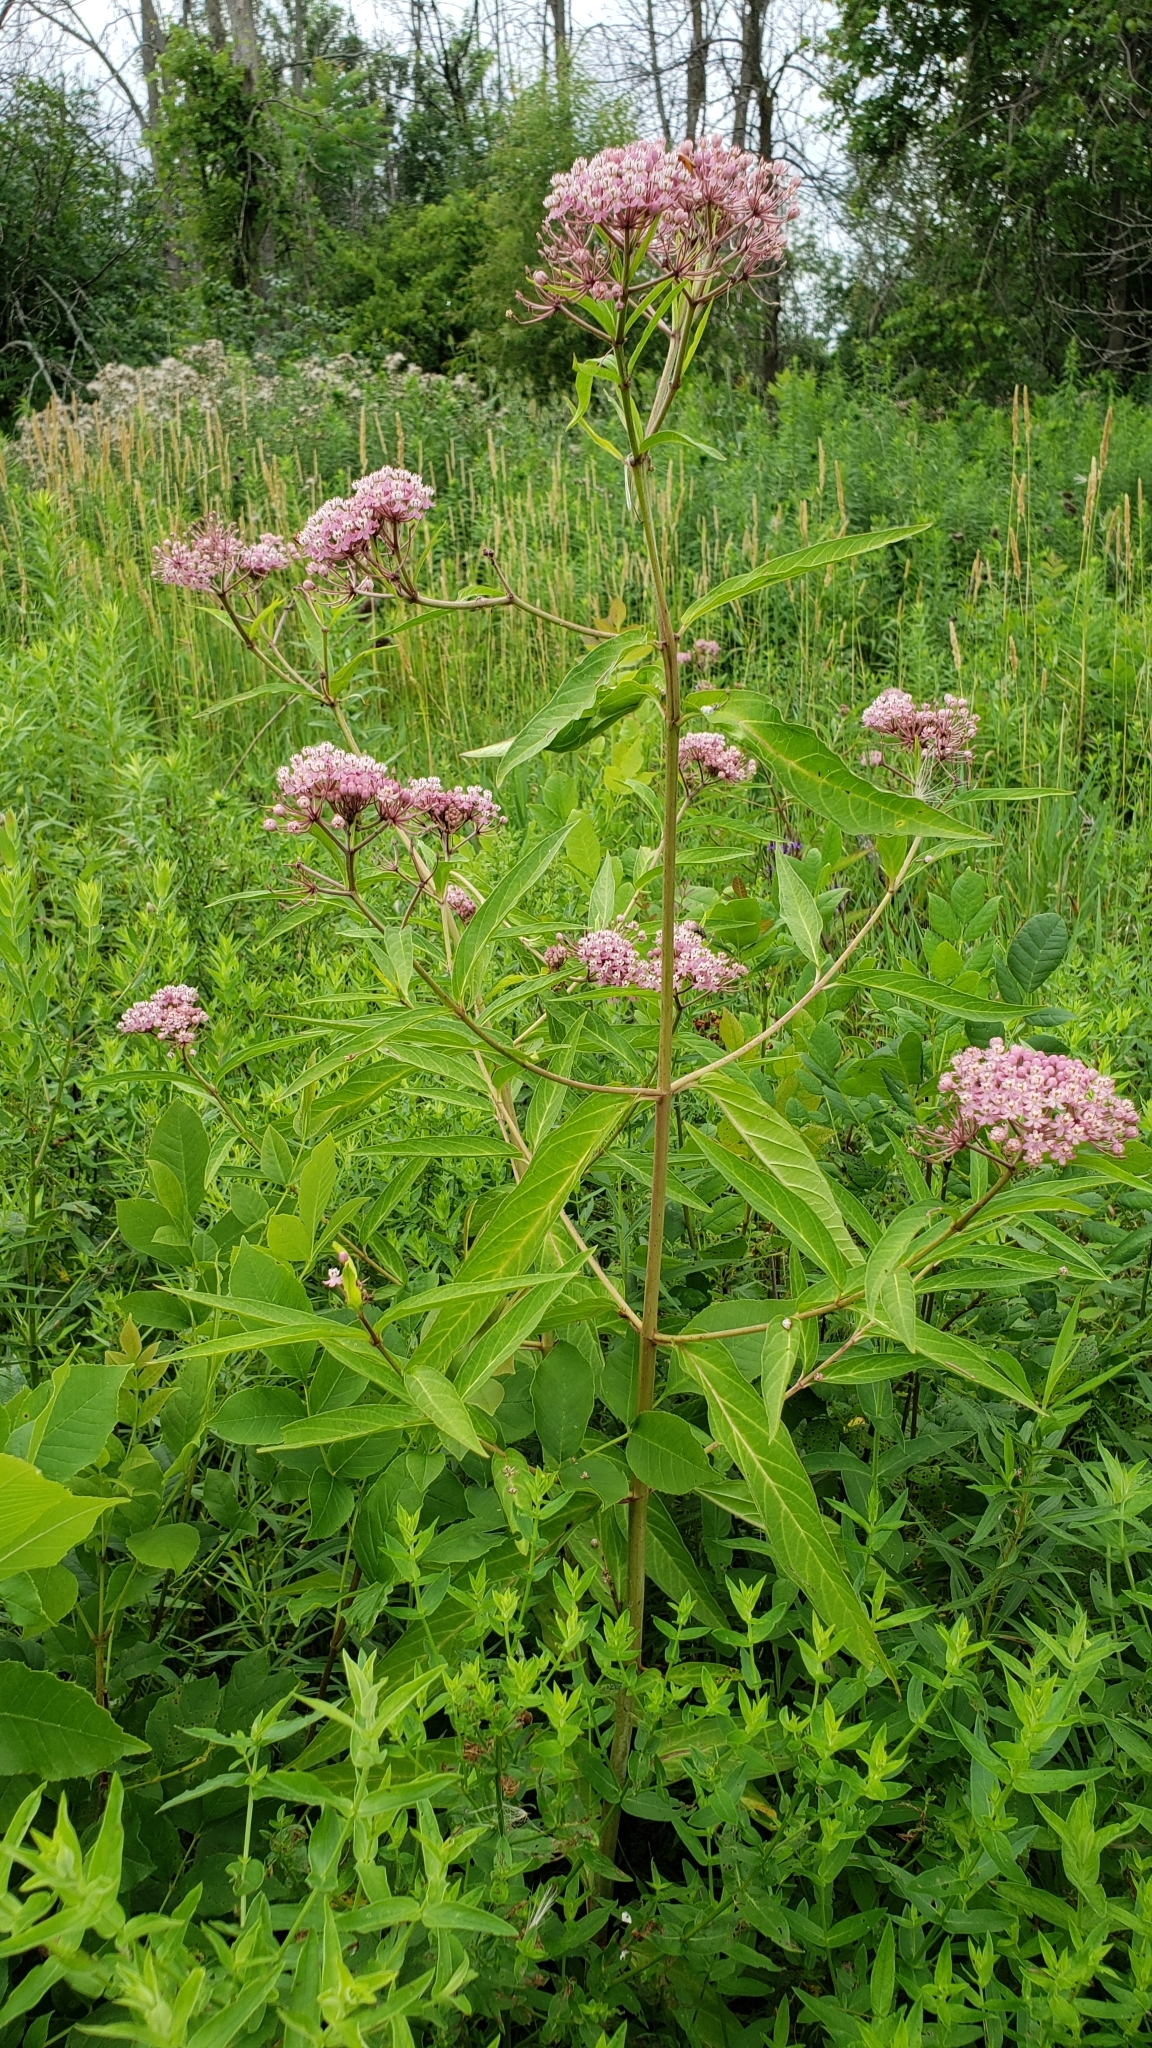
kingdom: Plantae
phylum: Tracheophyta
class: Magnoliopsida
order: Gentianales
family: Apocynaceae
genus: Asclepias
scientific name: Asclepias incarnata
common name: Swamp milkweed
